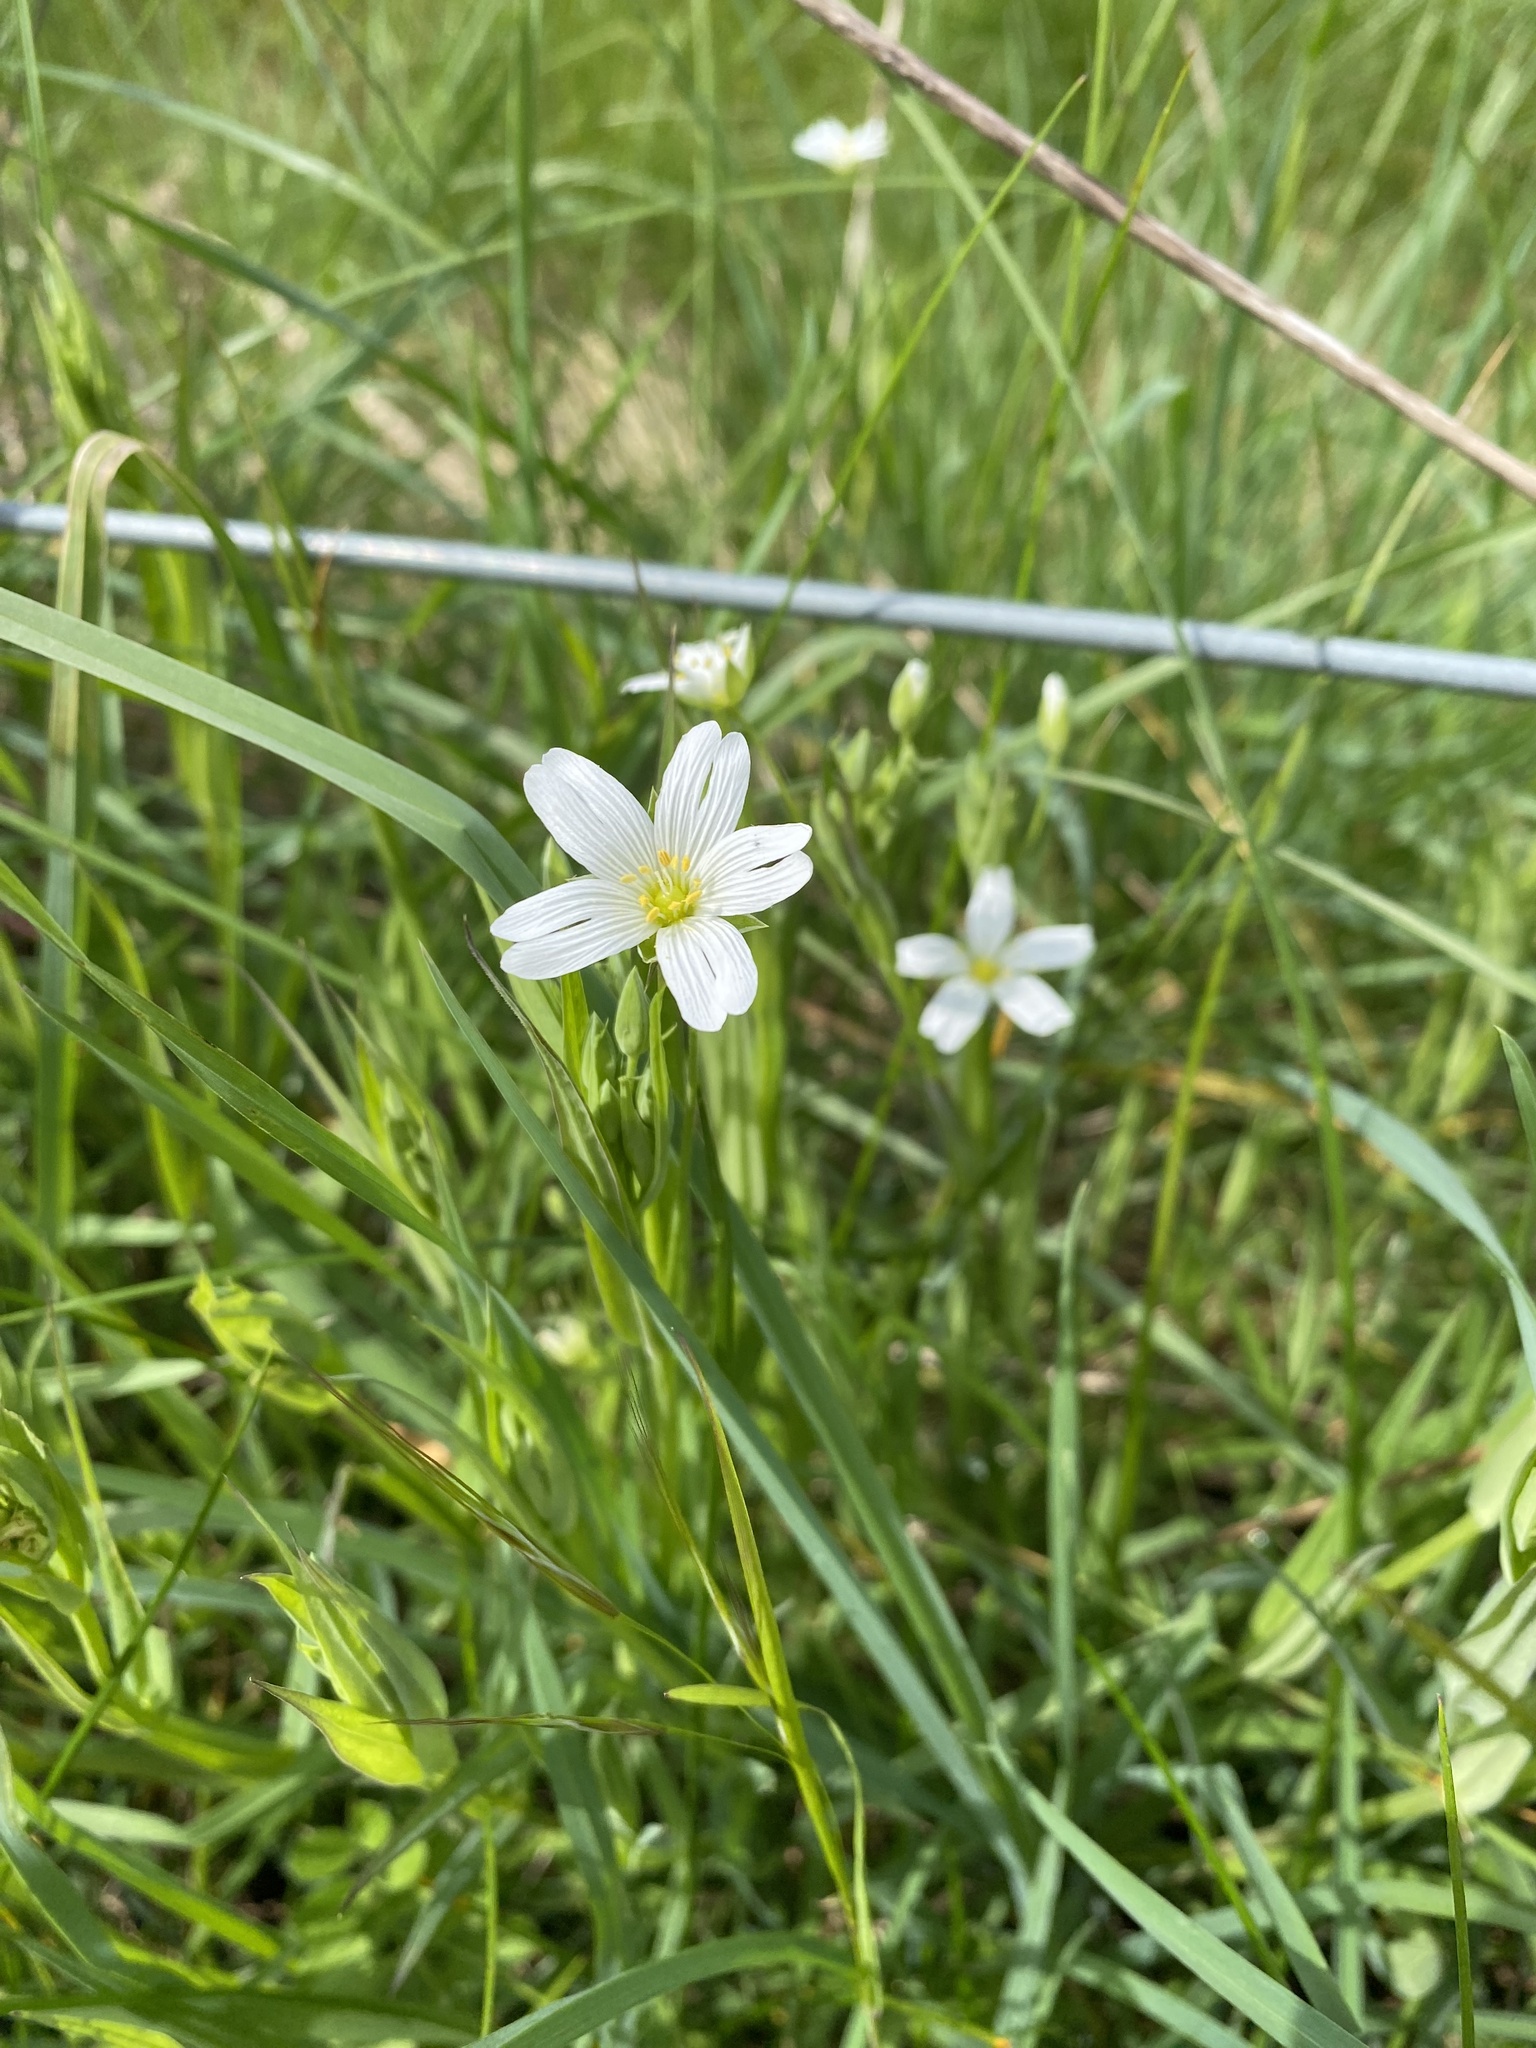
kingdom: Plantae
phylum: Tracheophyta
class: Magnoliopsida
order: Caryophyllales
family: Caryophyllaceae
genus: Rabelera
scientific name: Rabelera holostea
